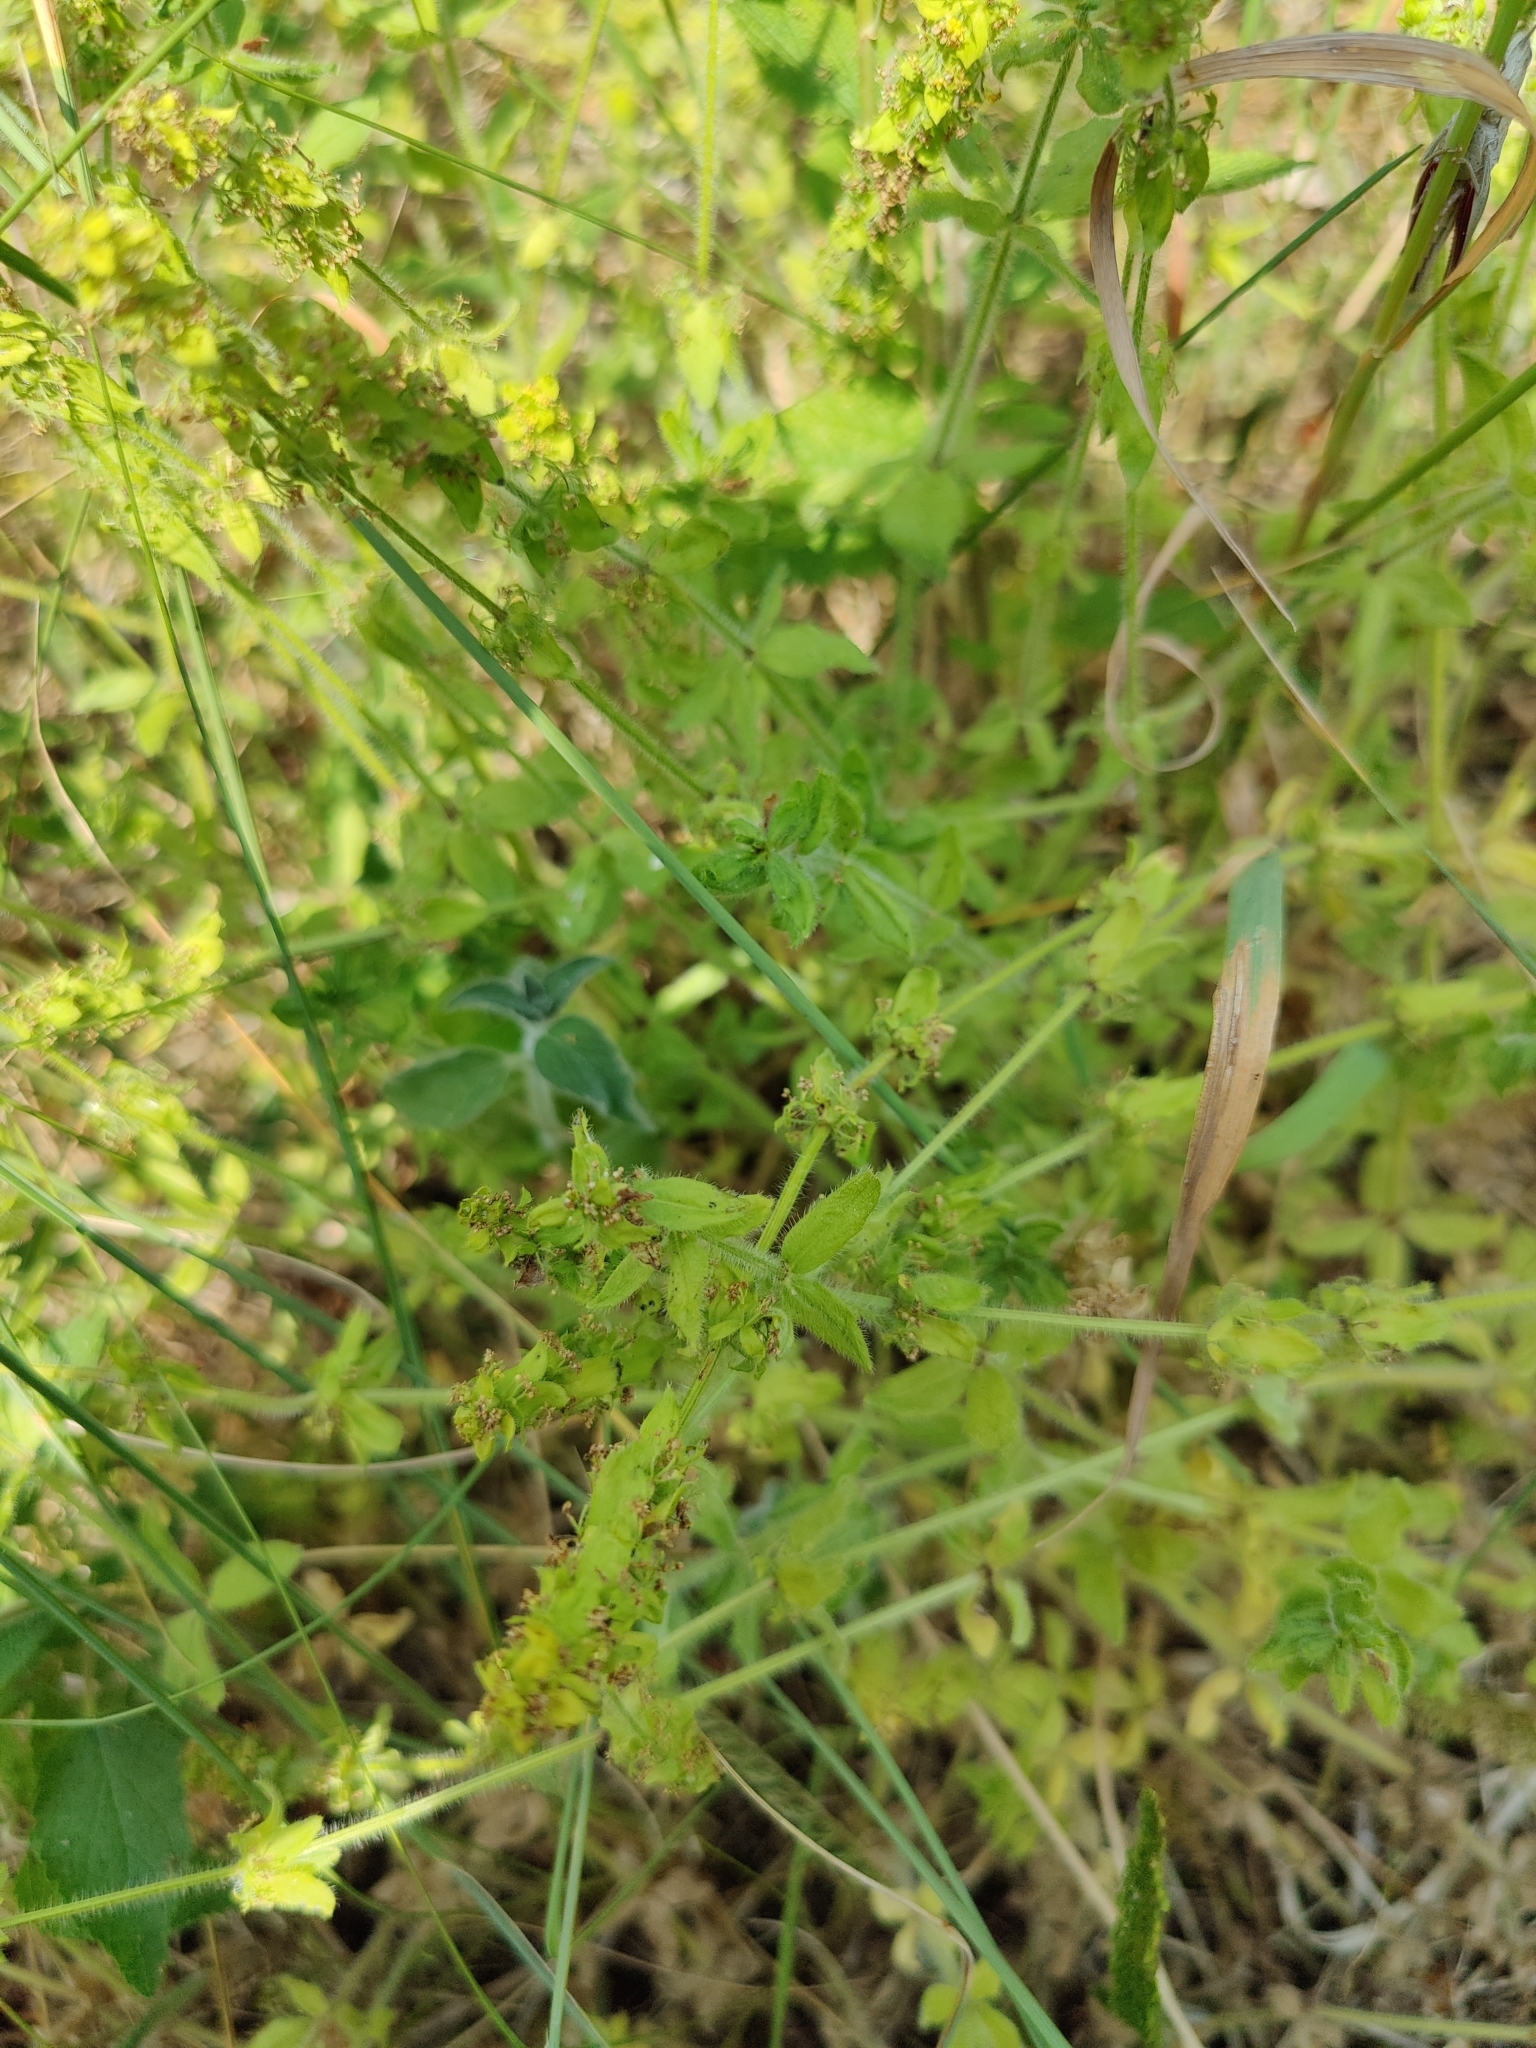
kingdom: Plantae
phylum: Tracheophyta
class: Magnoliopsida
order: Gentianales
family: Rubiaceae
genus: Cruciata
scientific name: Cruciata laevipes
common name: Crosswort
